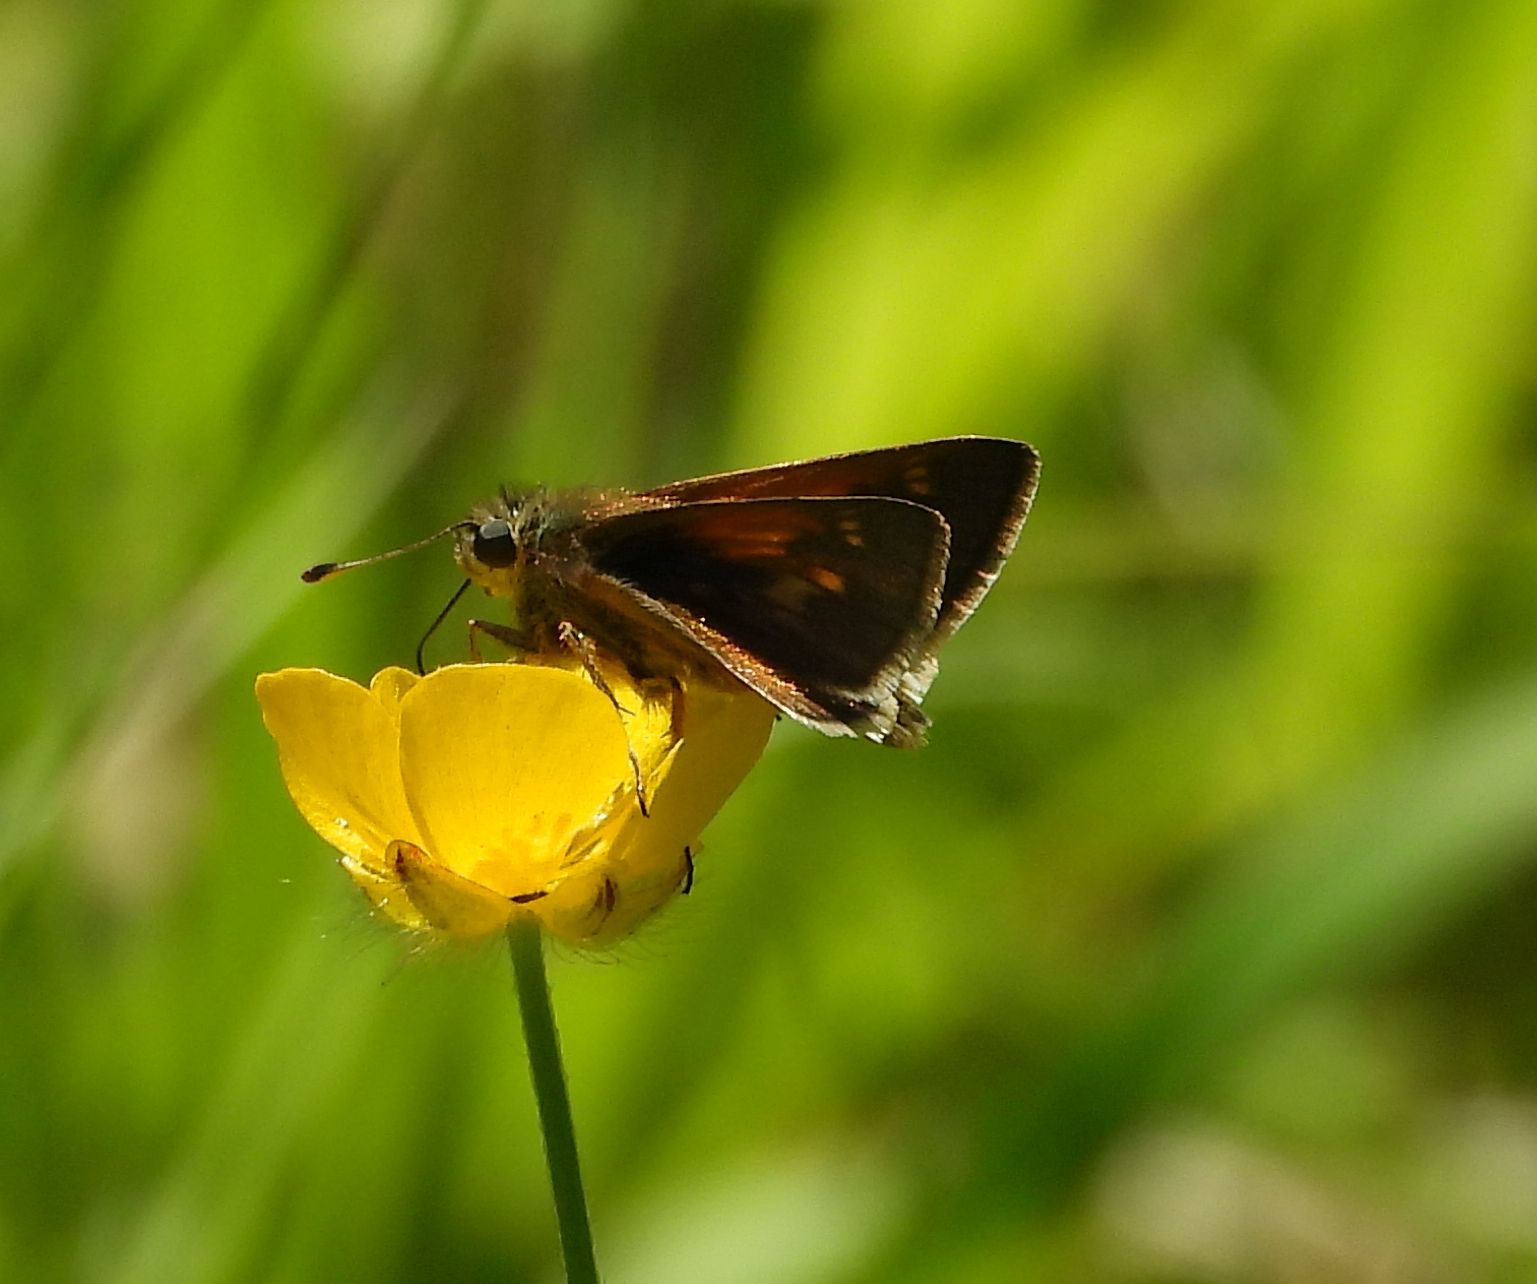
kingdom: Animalia
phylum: Arthropoda
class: Insecta
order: Lepidoptera
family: Hesperiidae
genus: Polites
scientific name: Polites themistocles
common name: Tawny-edged skipper
